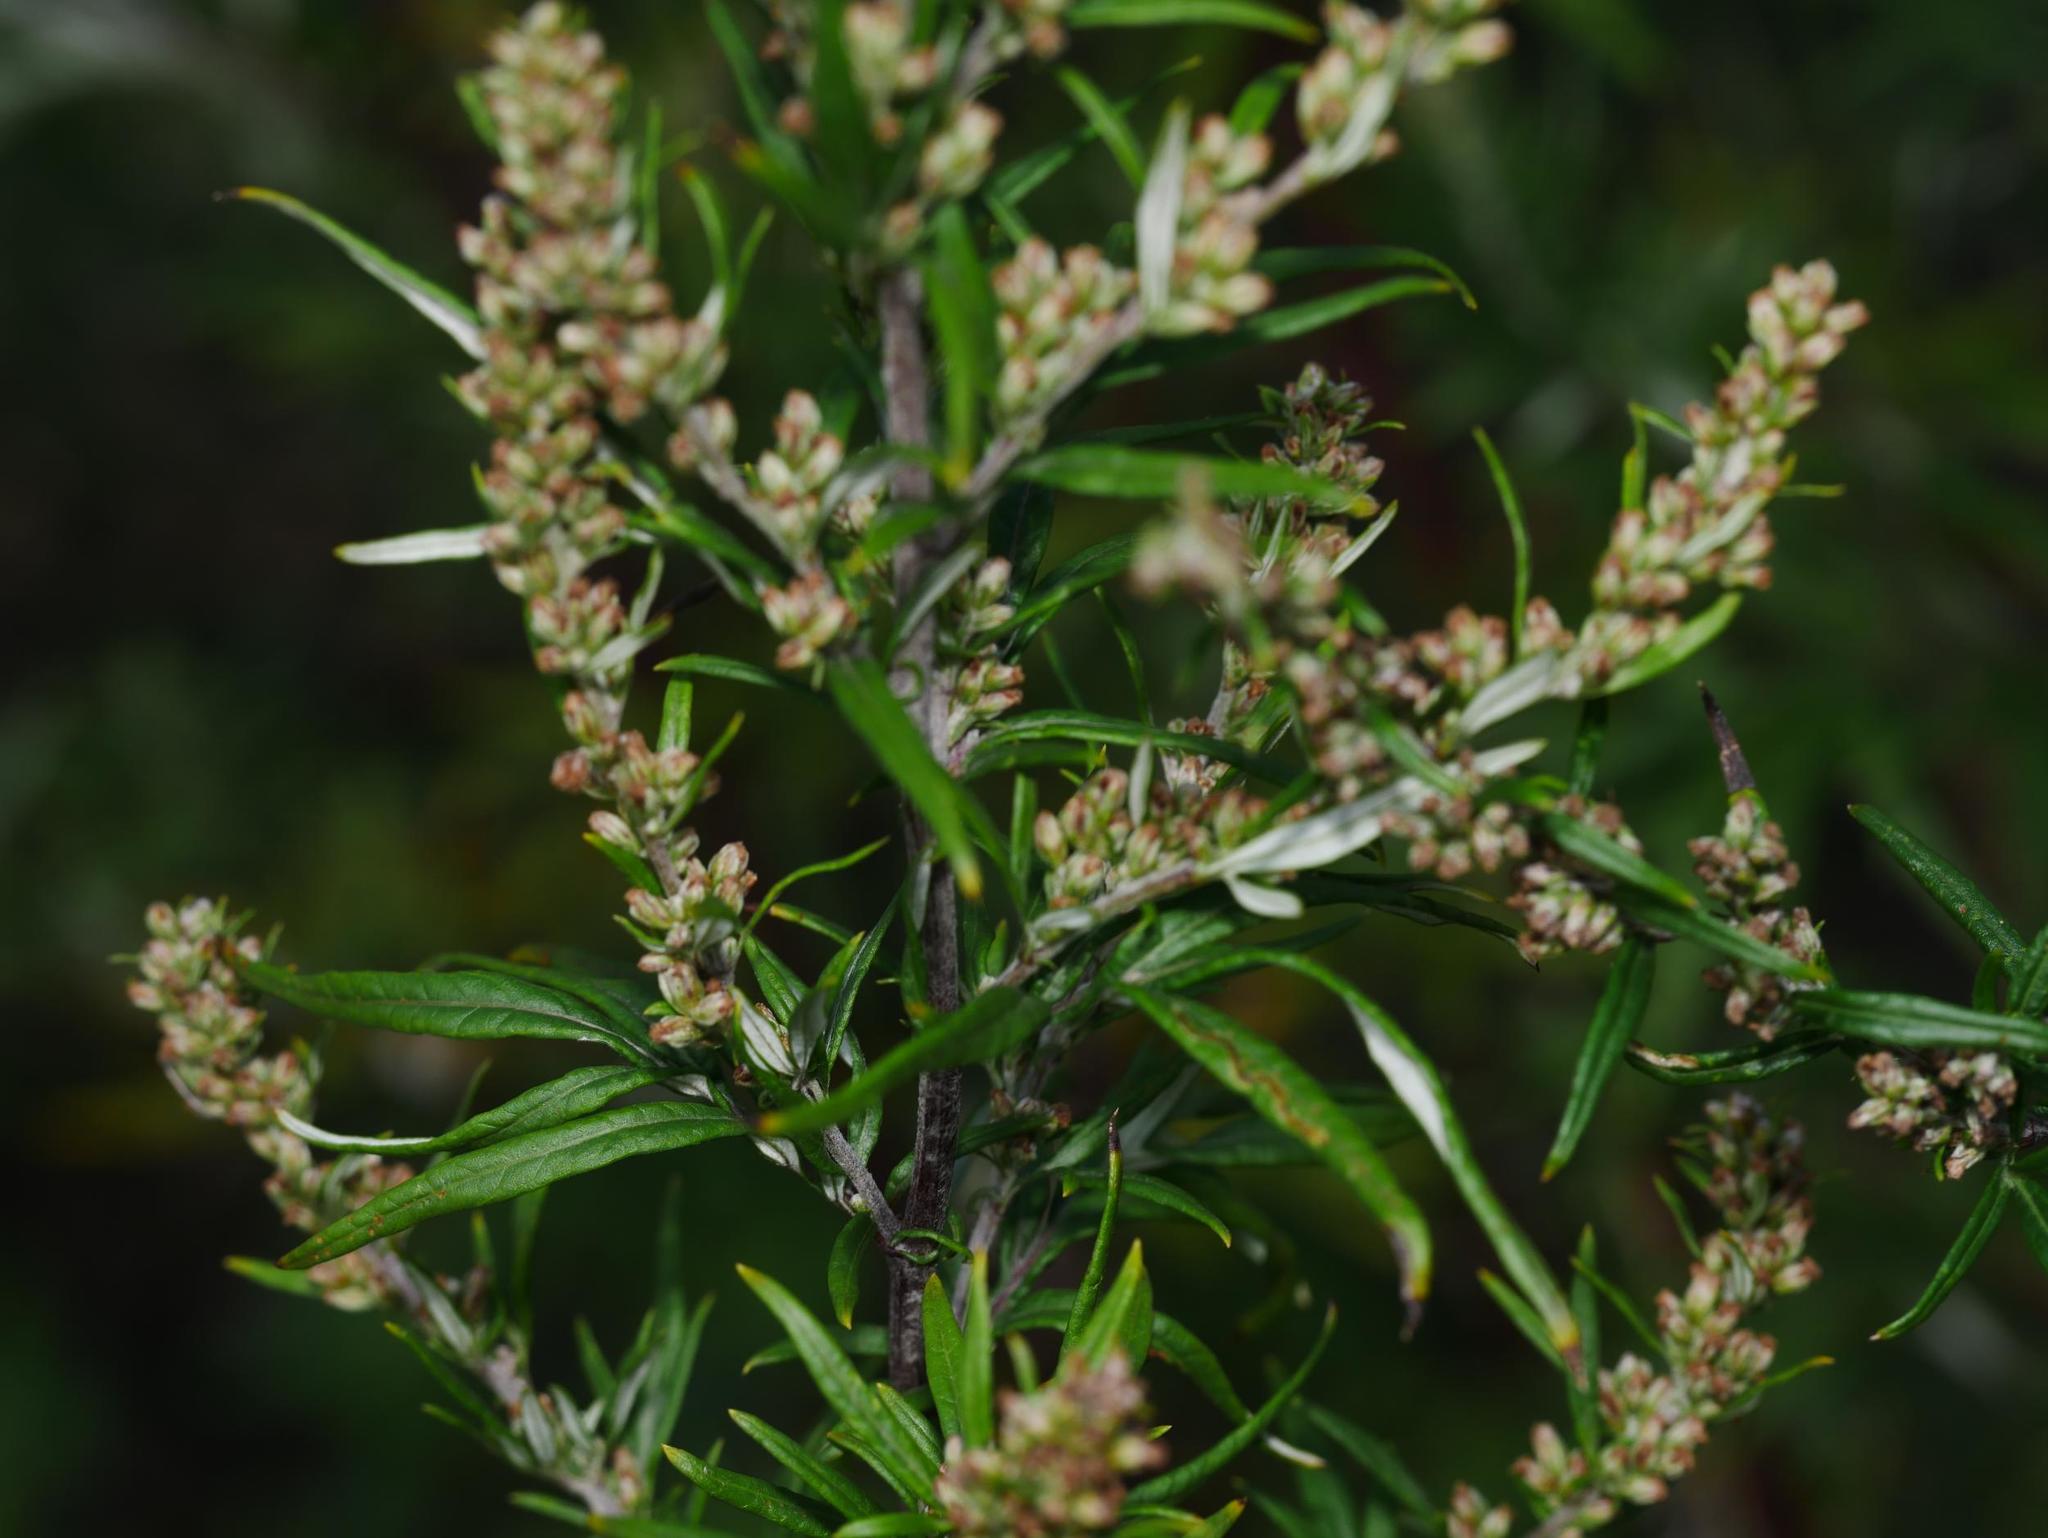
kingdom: Plantae
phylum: Tracheophyta
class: Magnoliopsida
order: Asterales
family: Asteraceae
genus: Artemisia
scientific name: Artemisia vulgaris
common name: Mugwort
